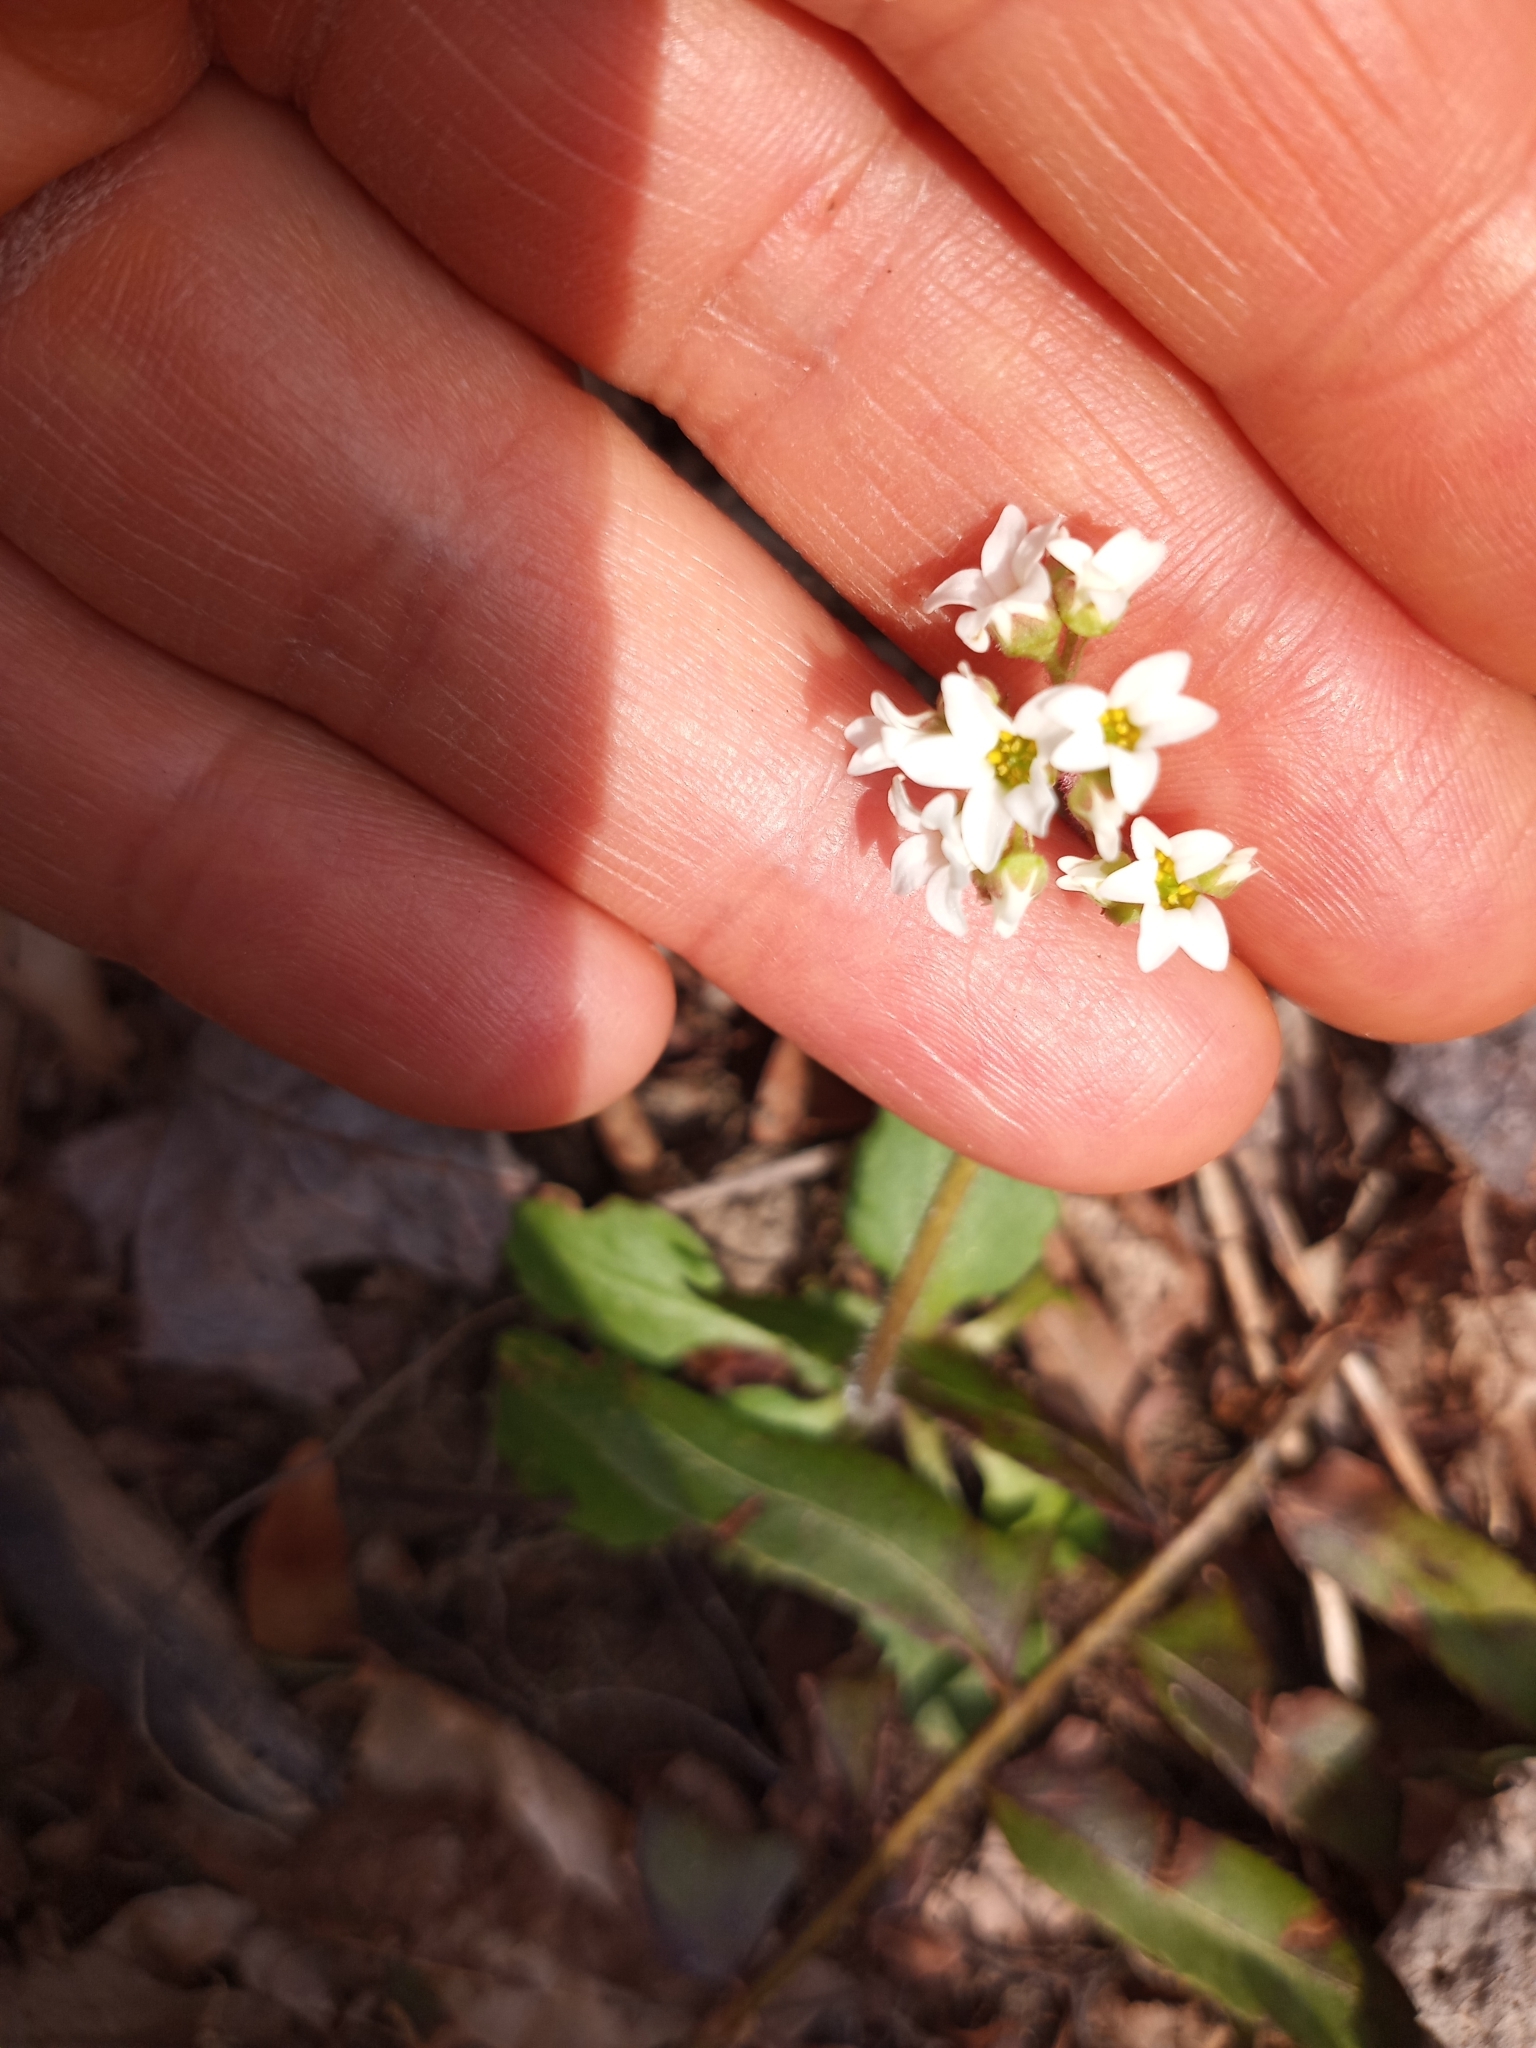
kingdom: Plantae
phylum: Tracheophyta
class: Magnoliopsida
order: Saxifragales
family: Saxifragaceae
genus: Micranthes
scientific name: Micranthes virginiensis
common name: Early saxifrage
